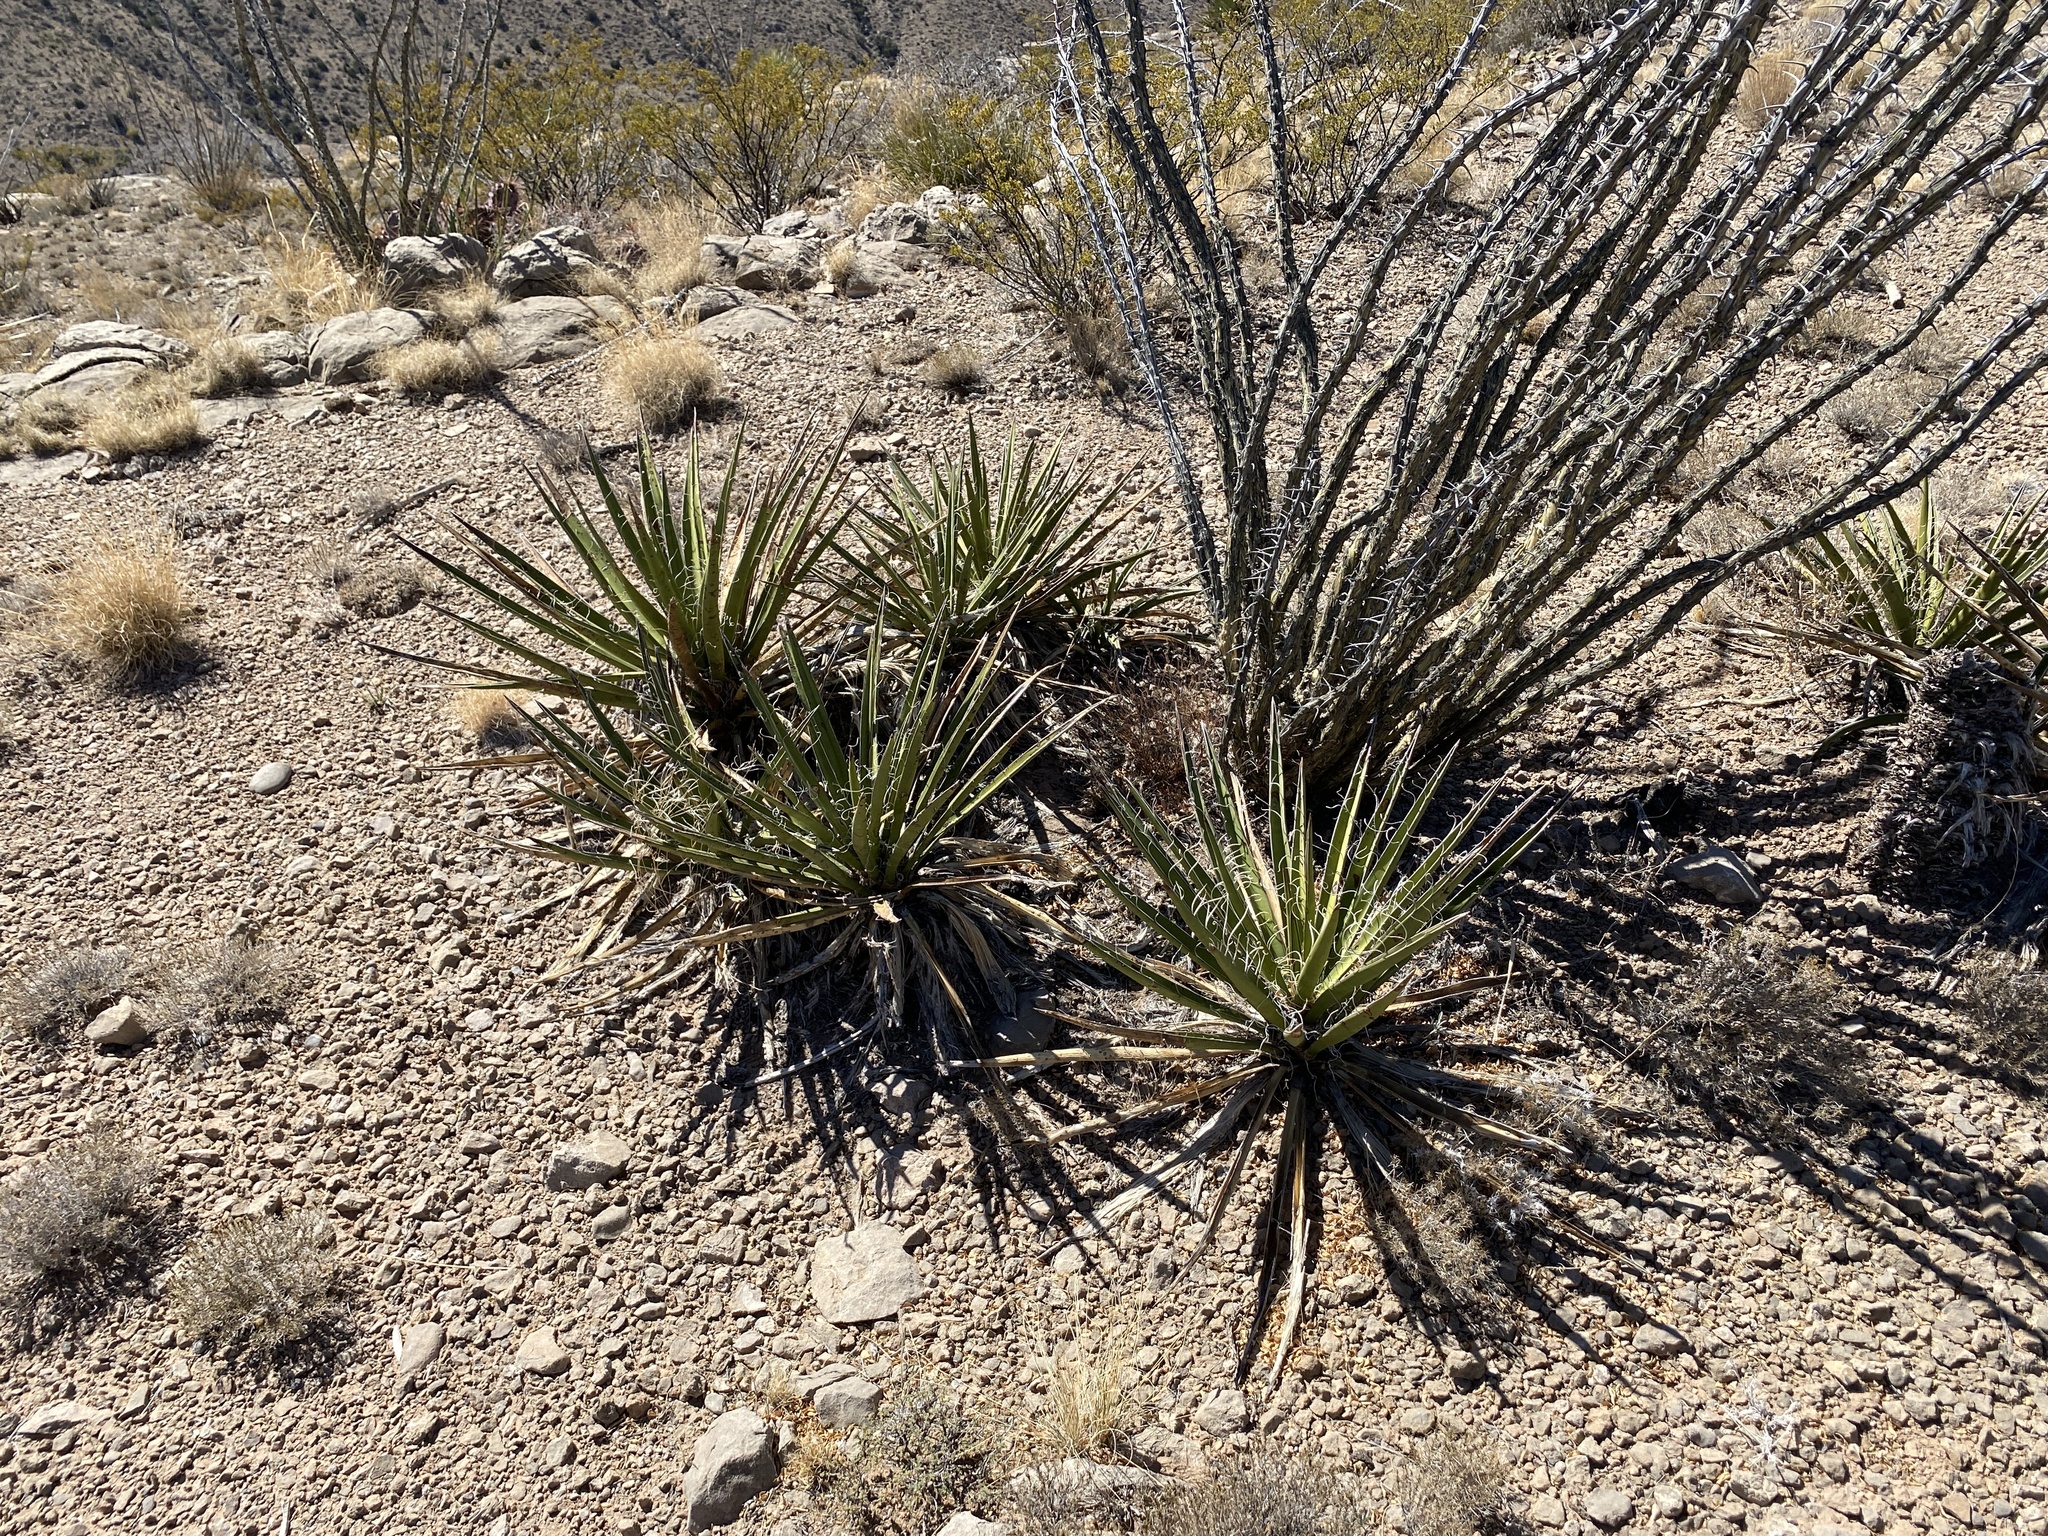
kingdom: Plantae
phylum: Tracheophyta
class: Liliopsida
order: Asparagales
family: Asparagaceae
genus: Yucca
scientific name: Yucca baccata
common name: Banana yucca
